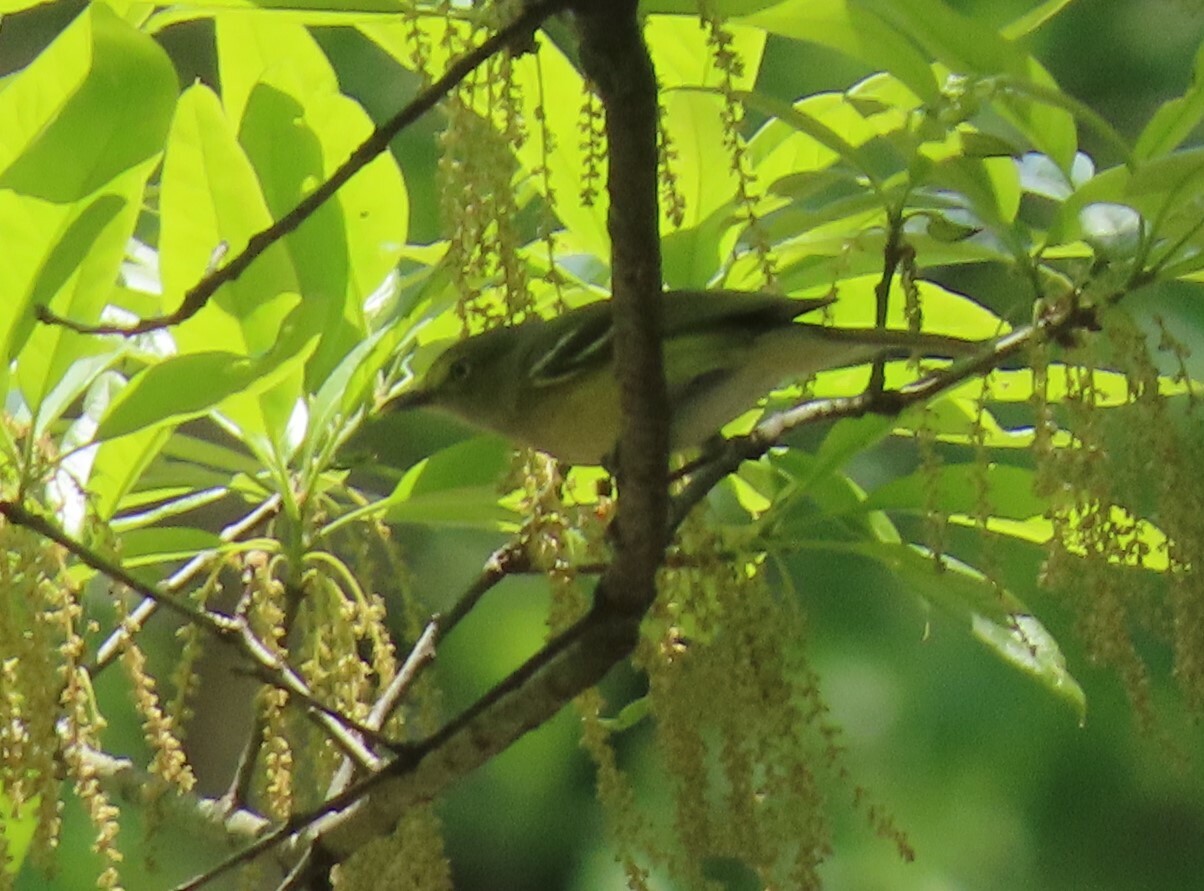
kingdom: Animalia
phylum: Chordata
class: Aves
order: Passeriformes
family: Vireonidae
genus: Vireo
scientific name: Vireo griseus
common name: White-eyed vireo
